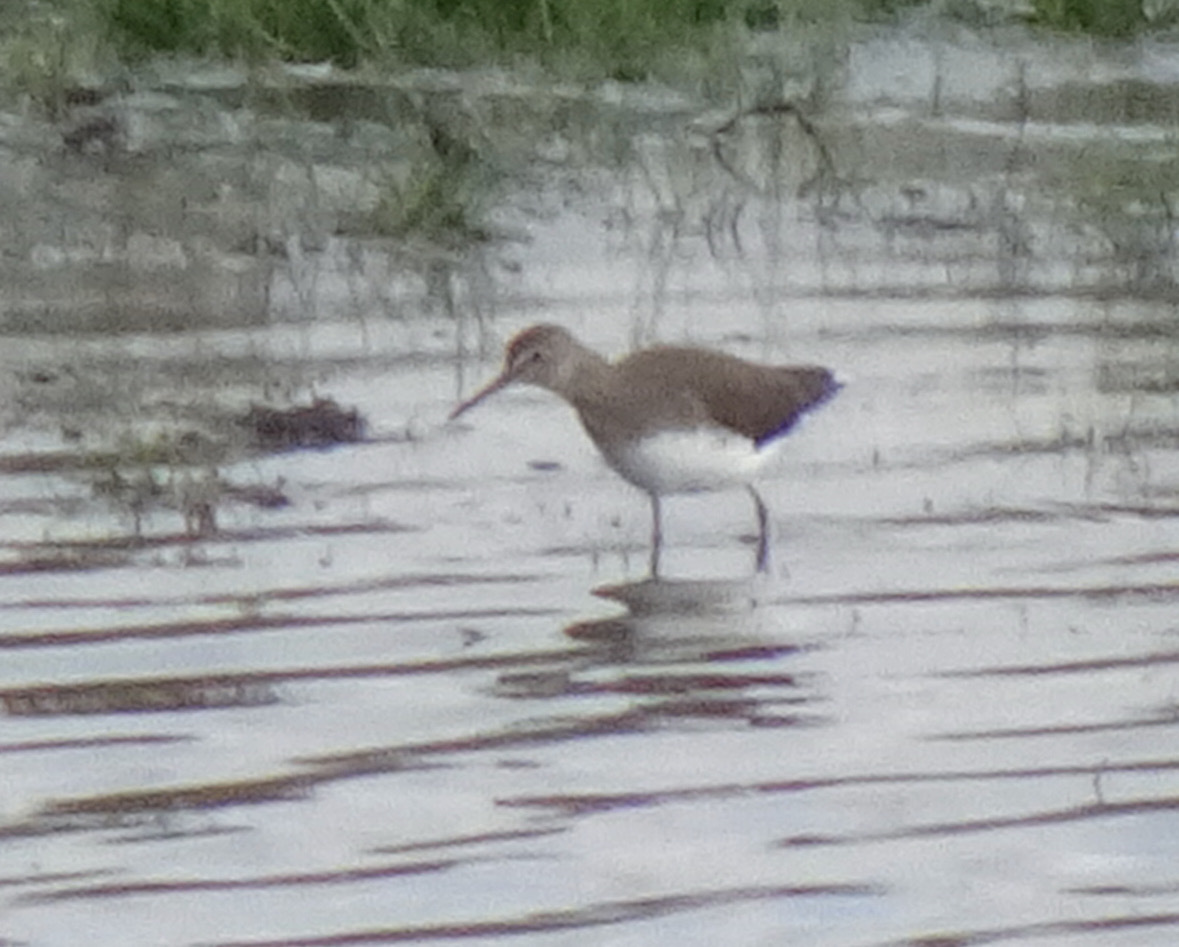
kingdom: Animalia
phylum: Chordata
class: Aves
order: Charadriiformes
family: Scolopacidae
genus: Tringa
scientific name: Tringa ochropus
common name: Green sandpiper
